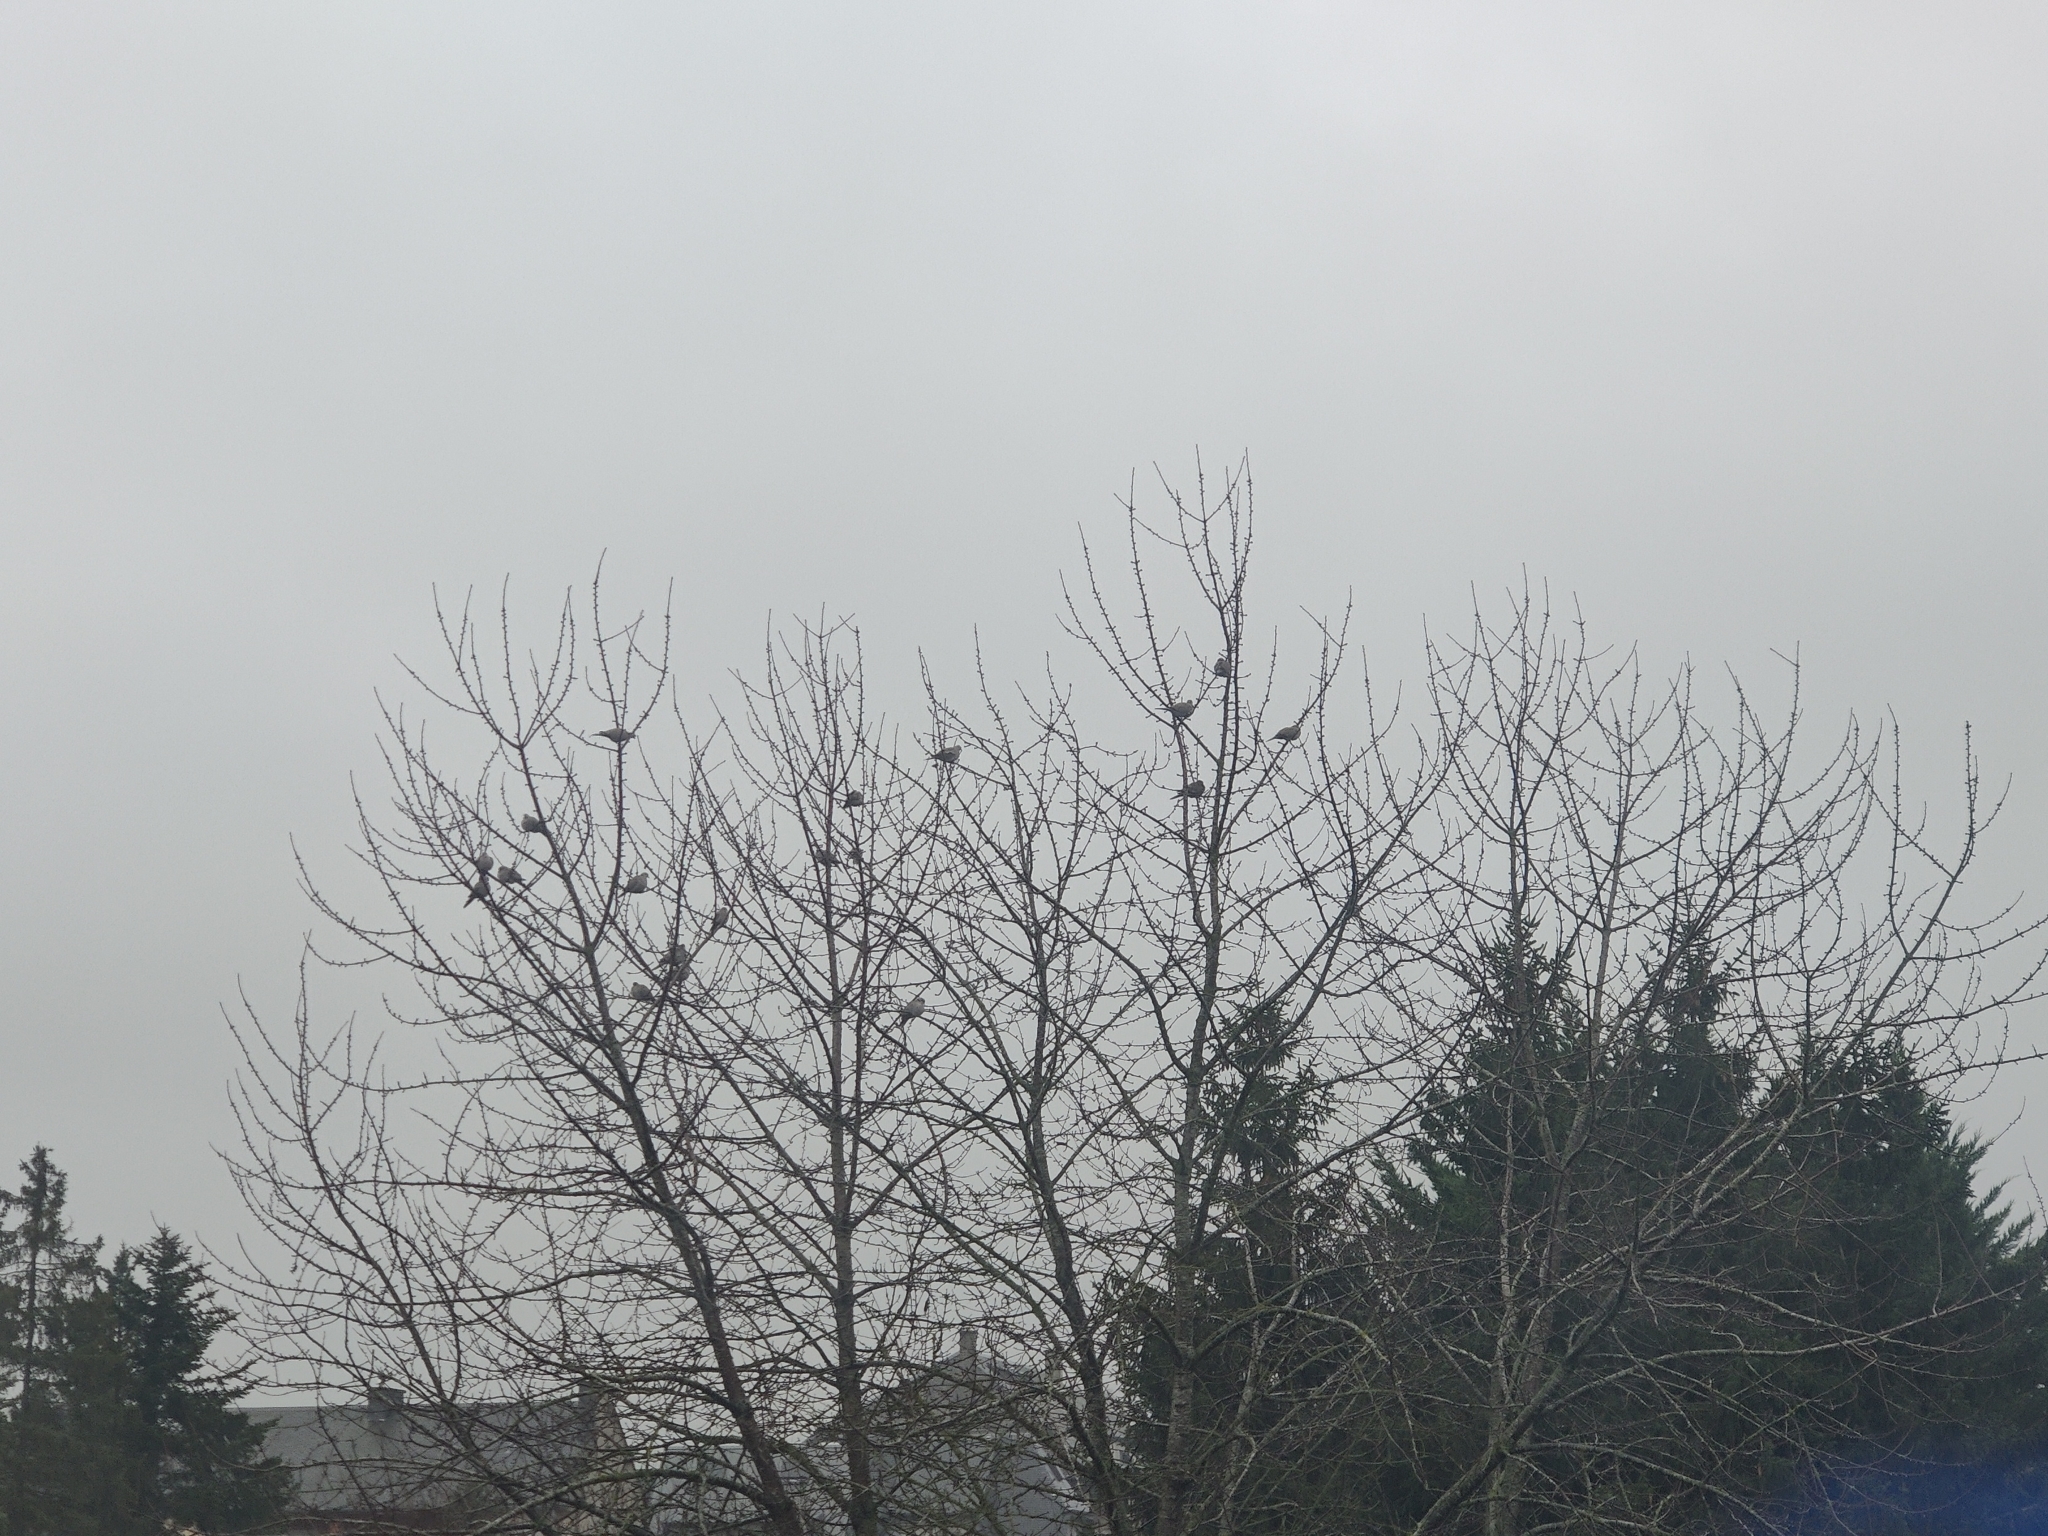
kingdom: Animalia
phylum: Chordata
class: Aves
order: Columbiformes
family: Columbidae
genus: Streptopelia
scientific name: Streptopelia decaocto
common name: Eurasian collared dove
